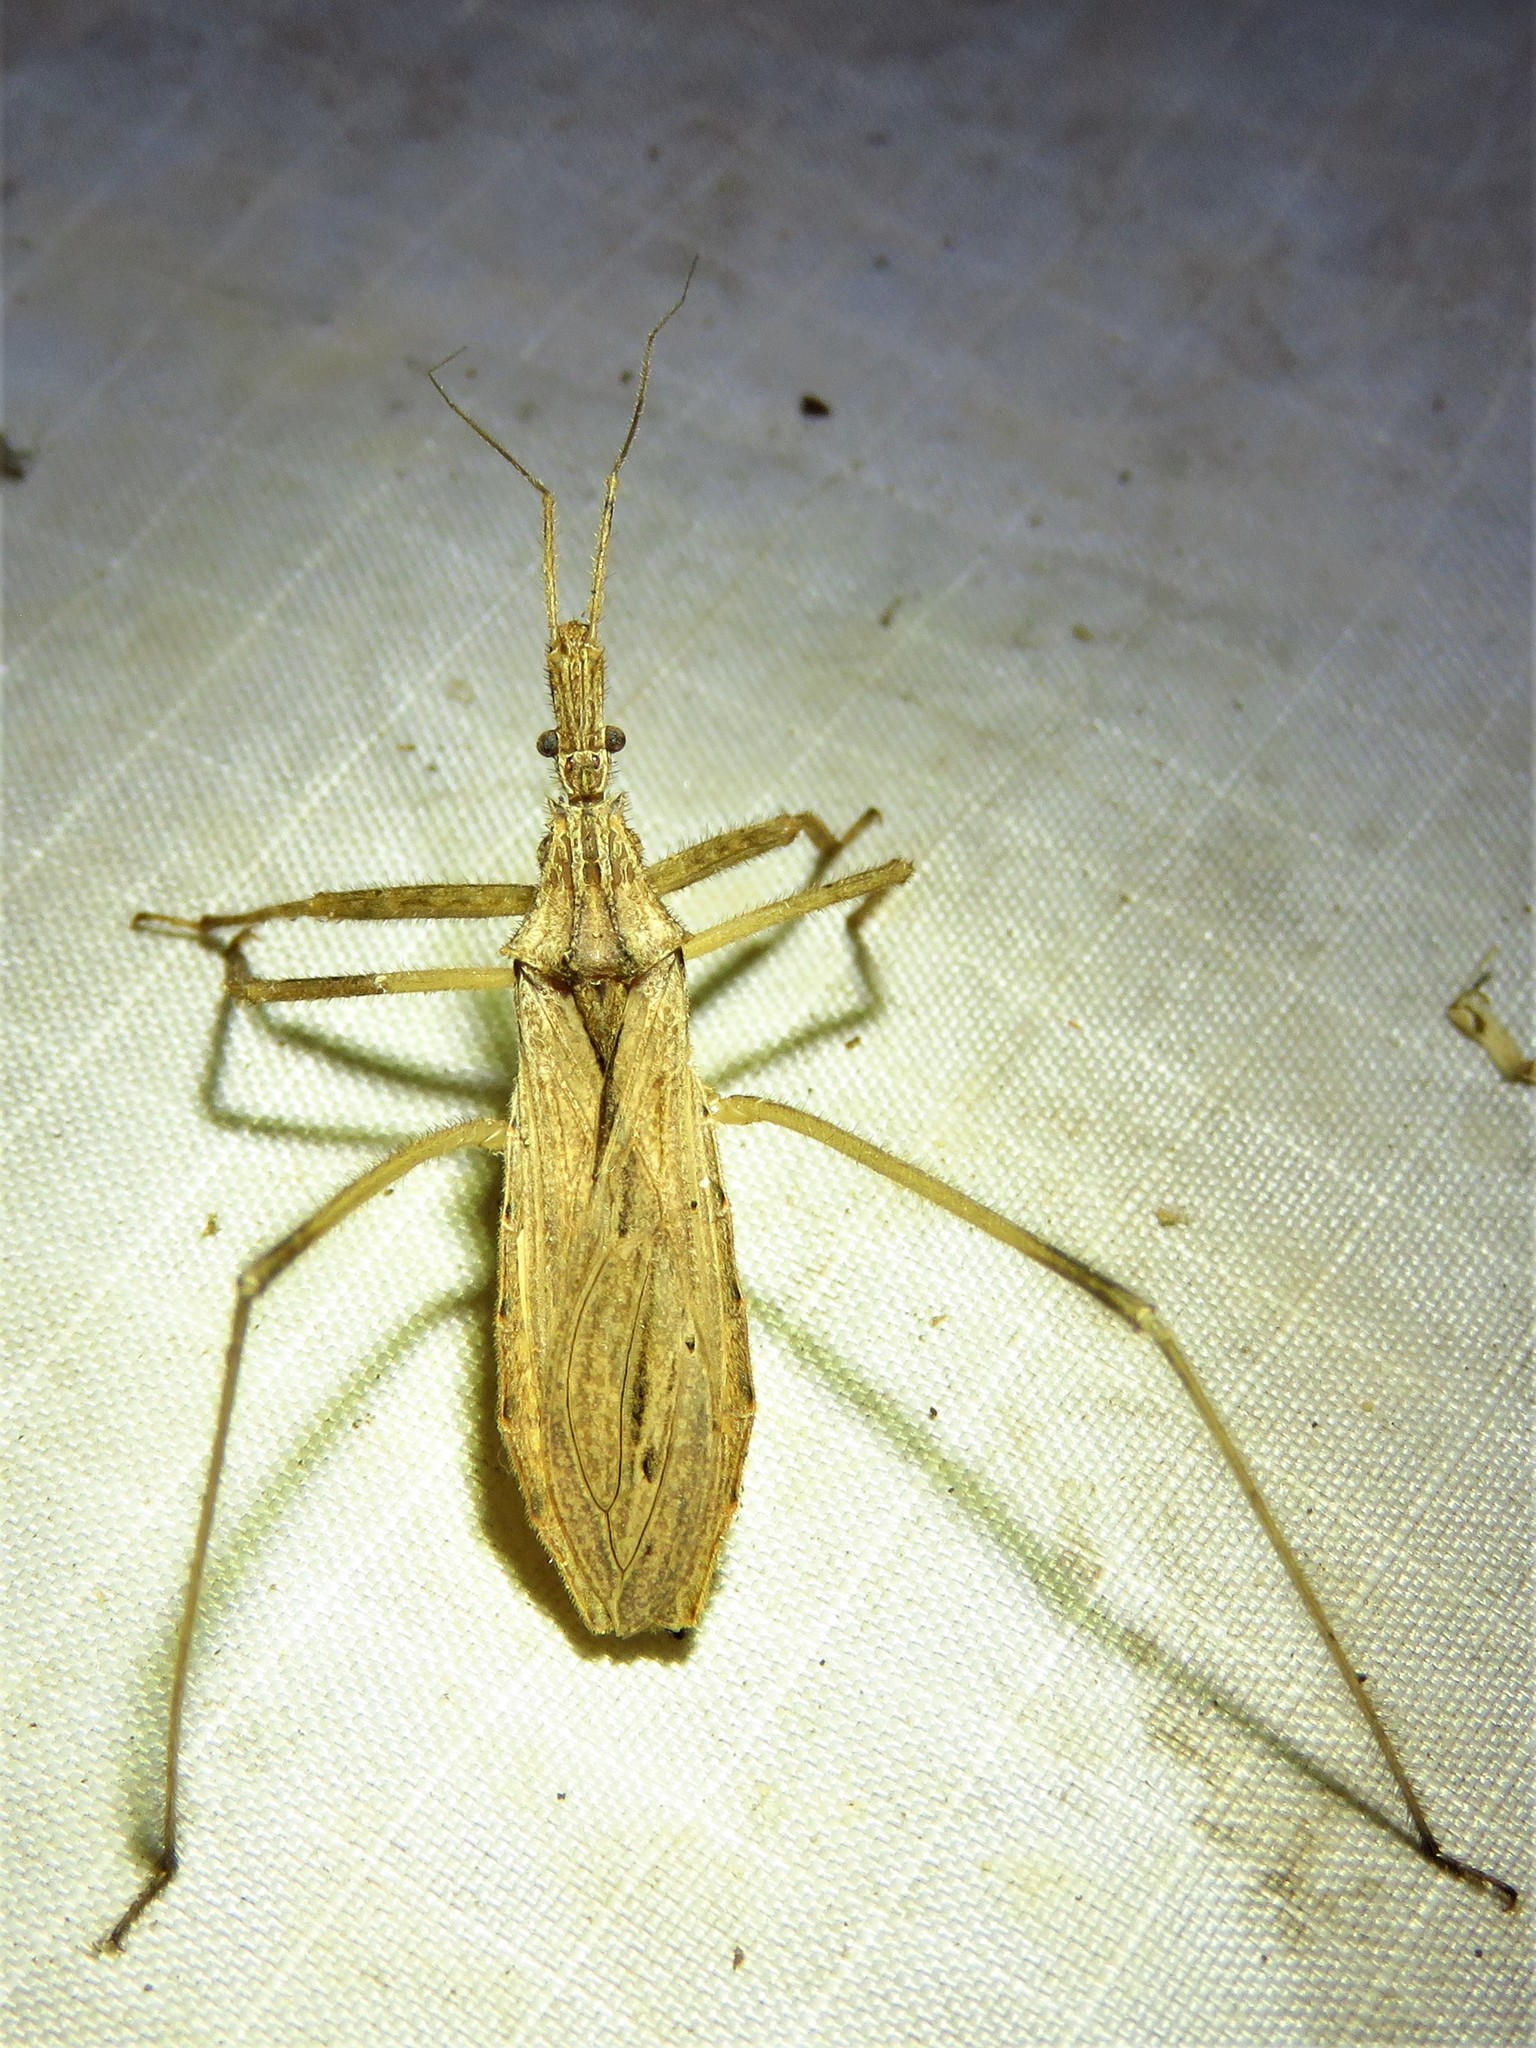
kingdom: Animalia
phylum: Arthropoda
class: Insecta
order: Hemiptera
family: Reduviidae
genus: Stenopoda
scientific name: Stenopoda spinulosa
